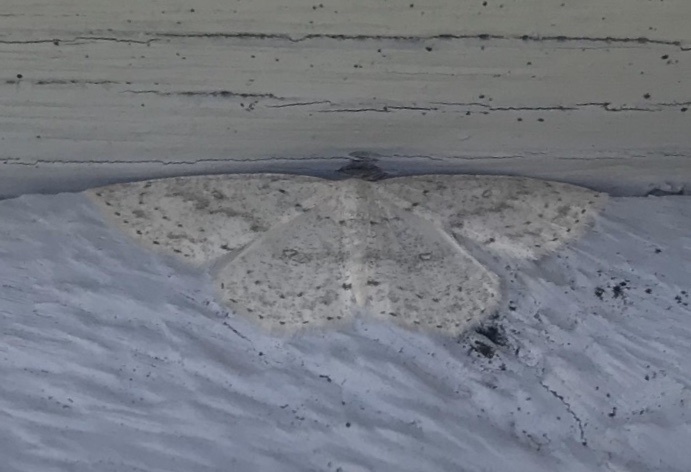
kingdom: Animalia
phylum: Arthropoda
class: Insecta
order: Lepidoptera
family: Geometridae
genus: Cyclophora
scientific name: Cyclophora pendulinaria
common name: Sweet fern geometer
